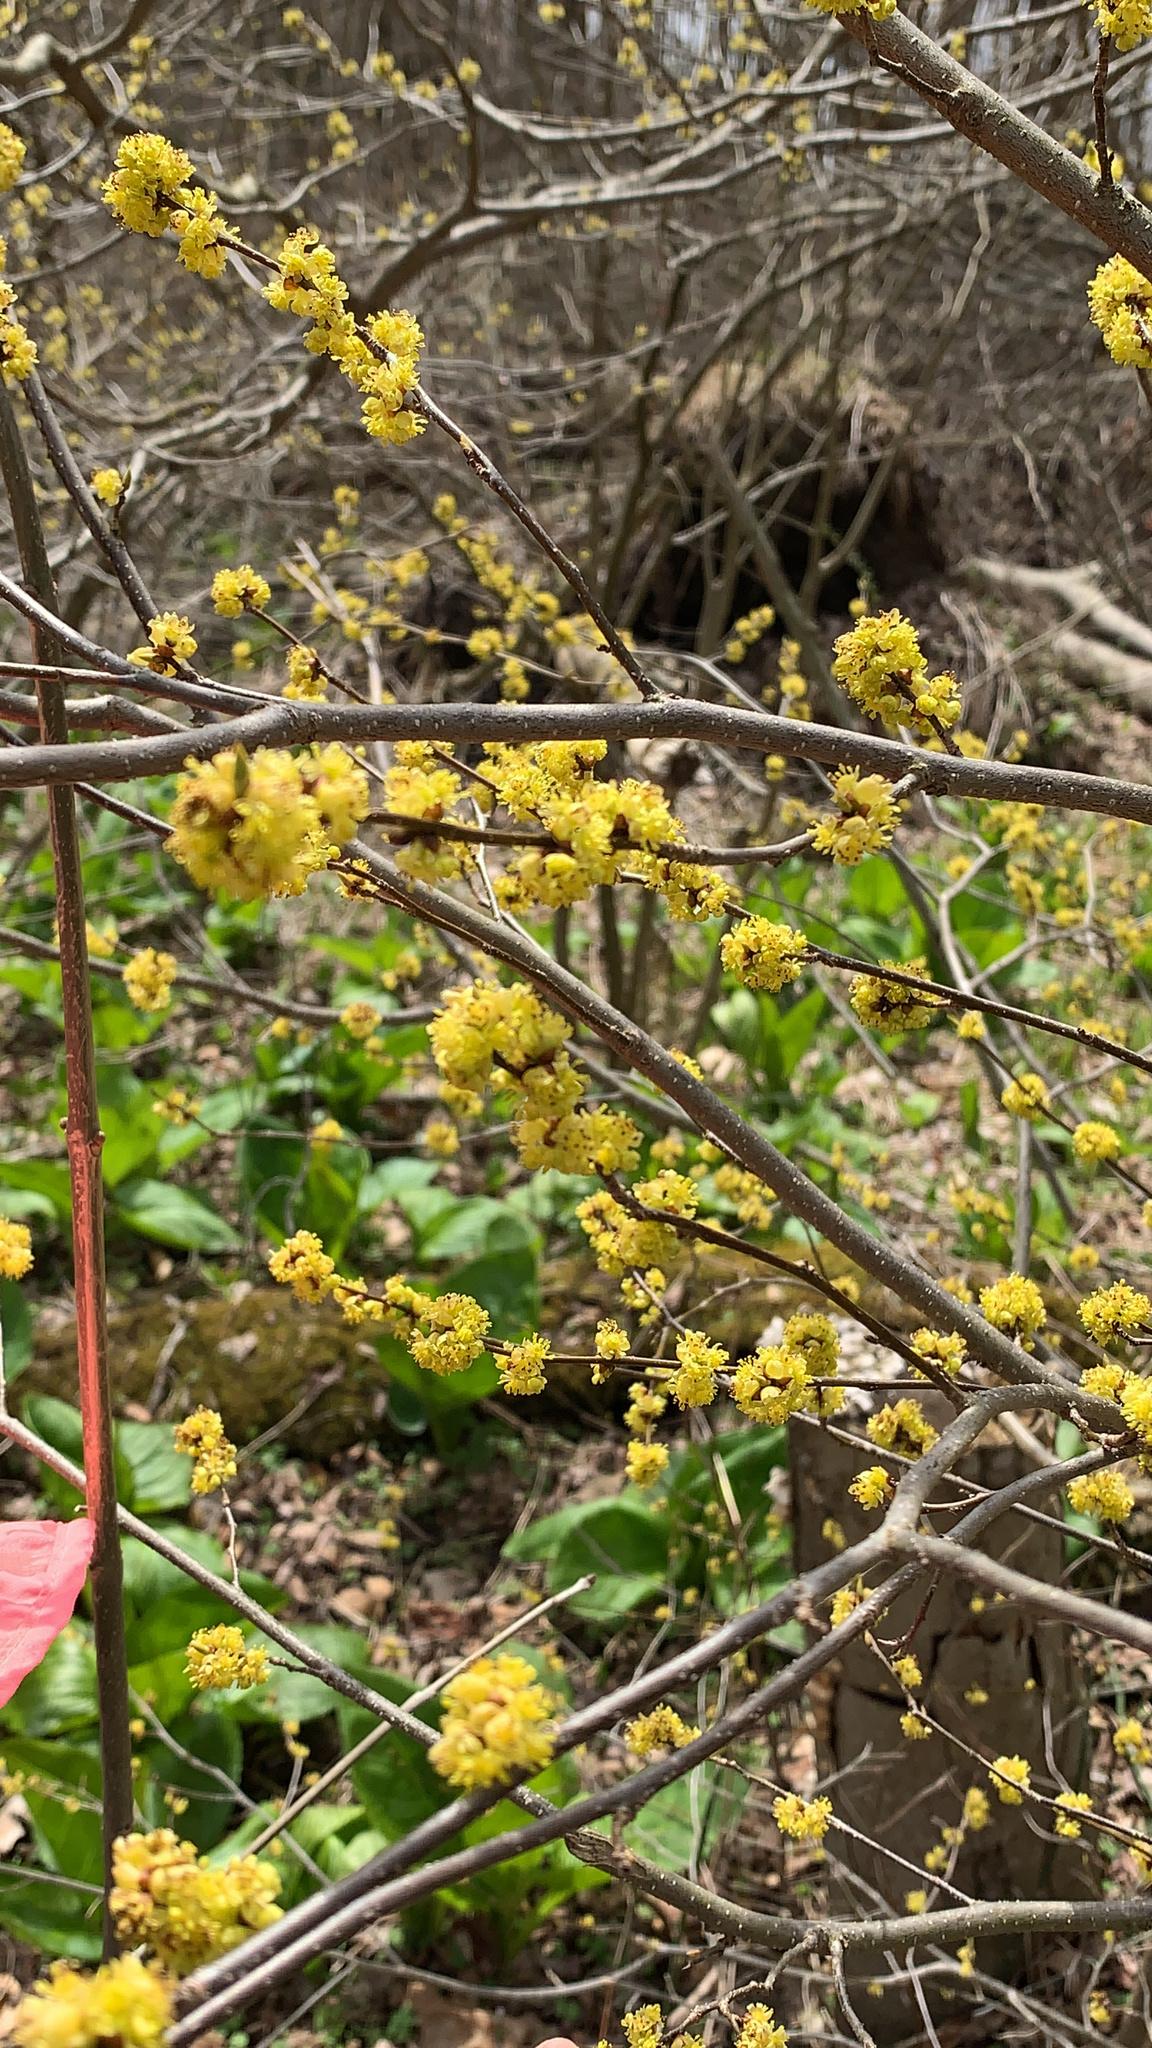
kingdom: Plantae
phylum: Tracheophyta
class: Magnoliopsida
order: Laurales
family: Lauraceae
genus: Lindera
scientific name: Lindera benzoin
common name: Spicebush
